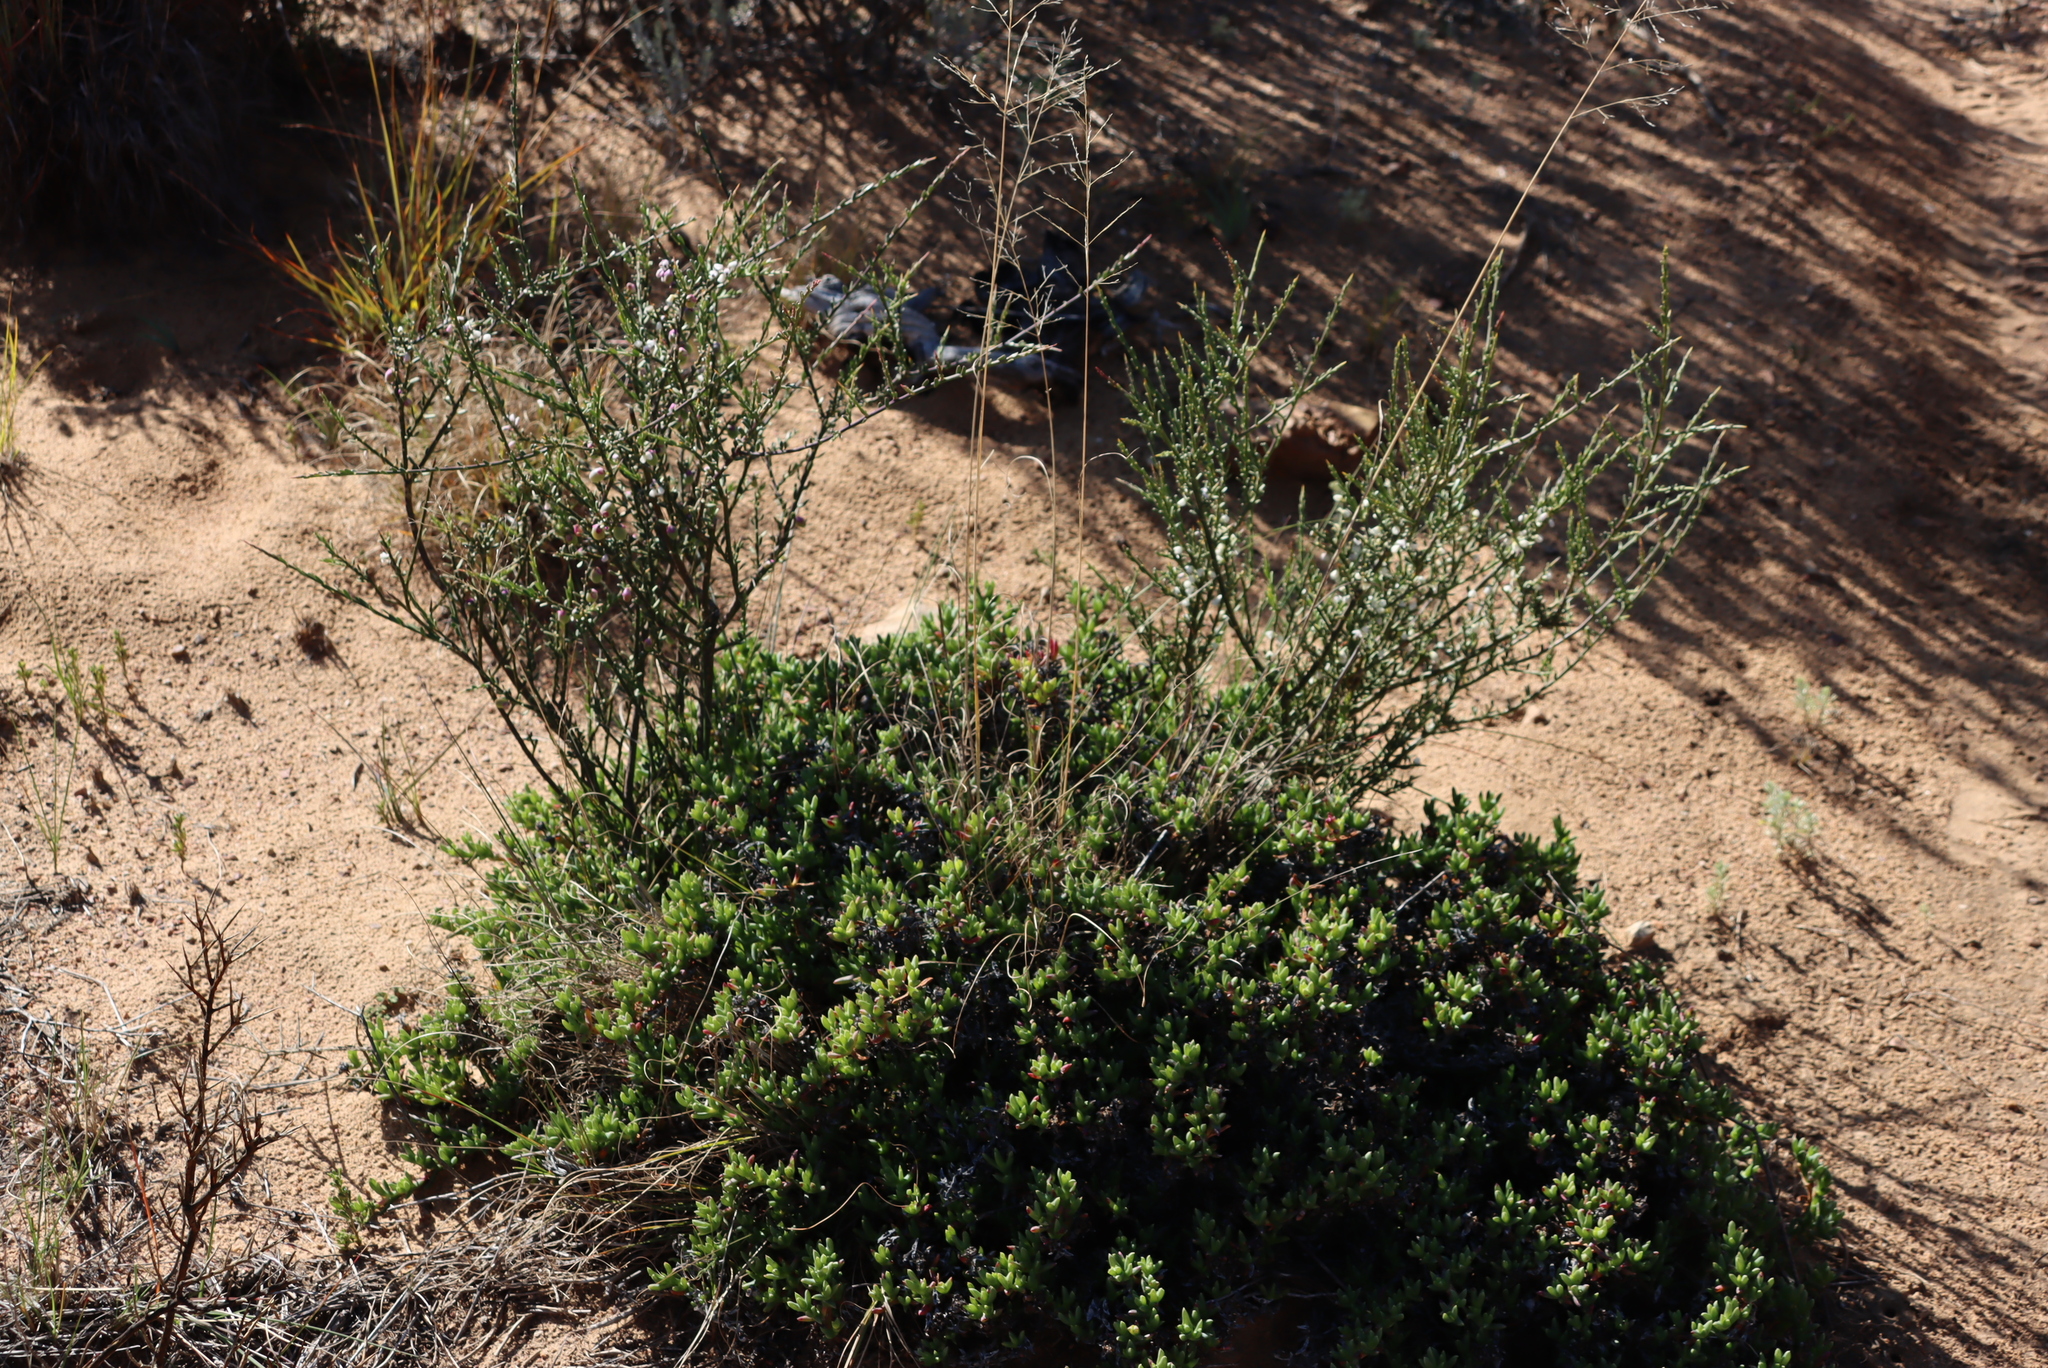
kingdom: Plantae
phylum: Tracheophyta
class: Magnoliopsida
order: Fabales
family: Polygalaceae
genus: Muraltia
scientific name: Muraltia spinosa
